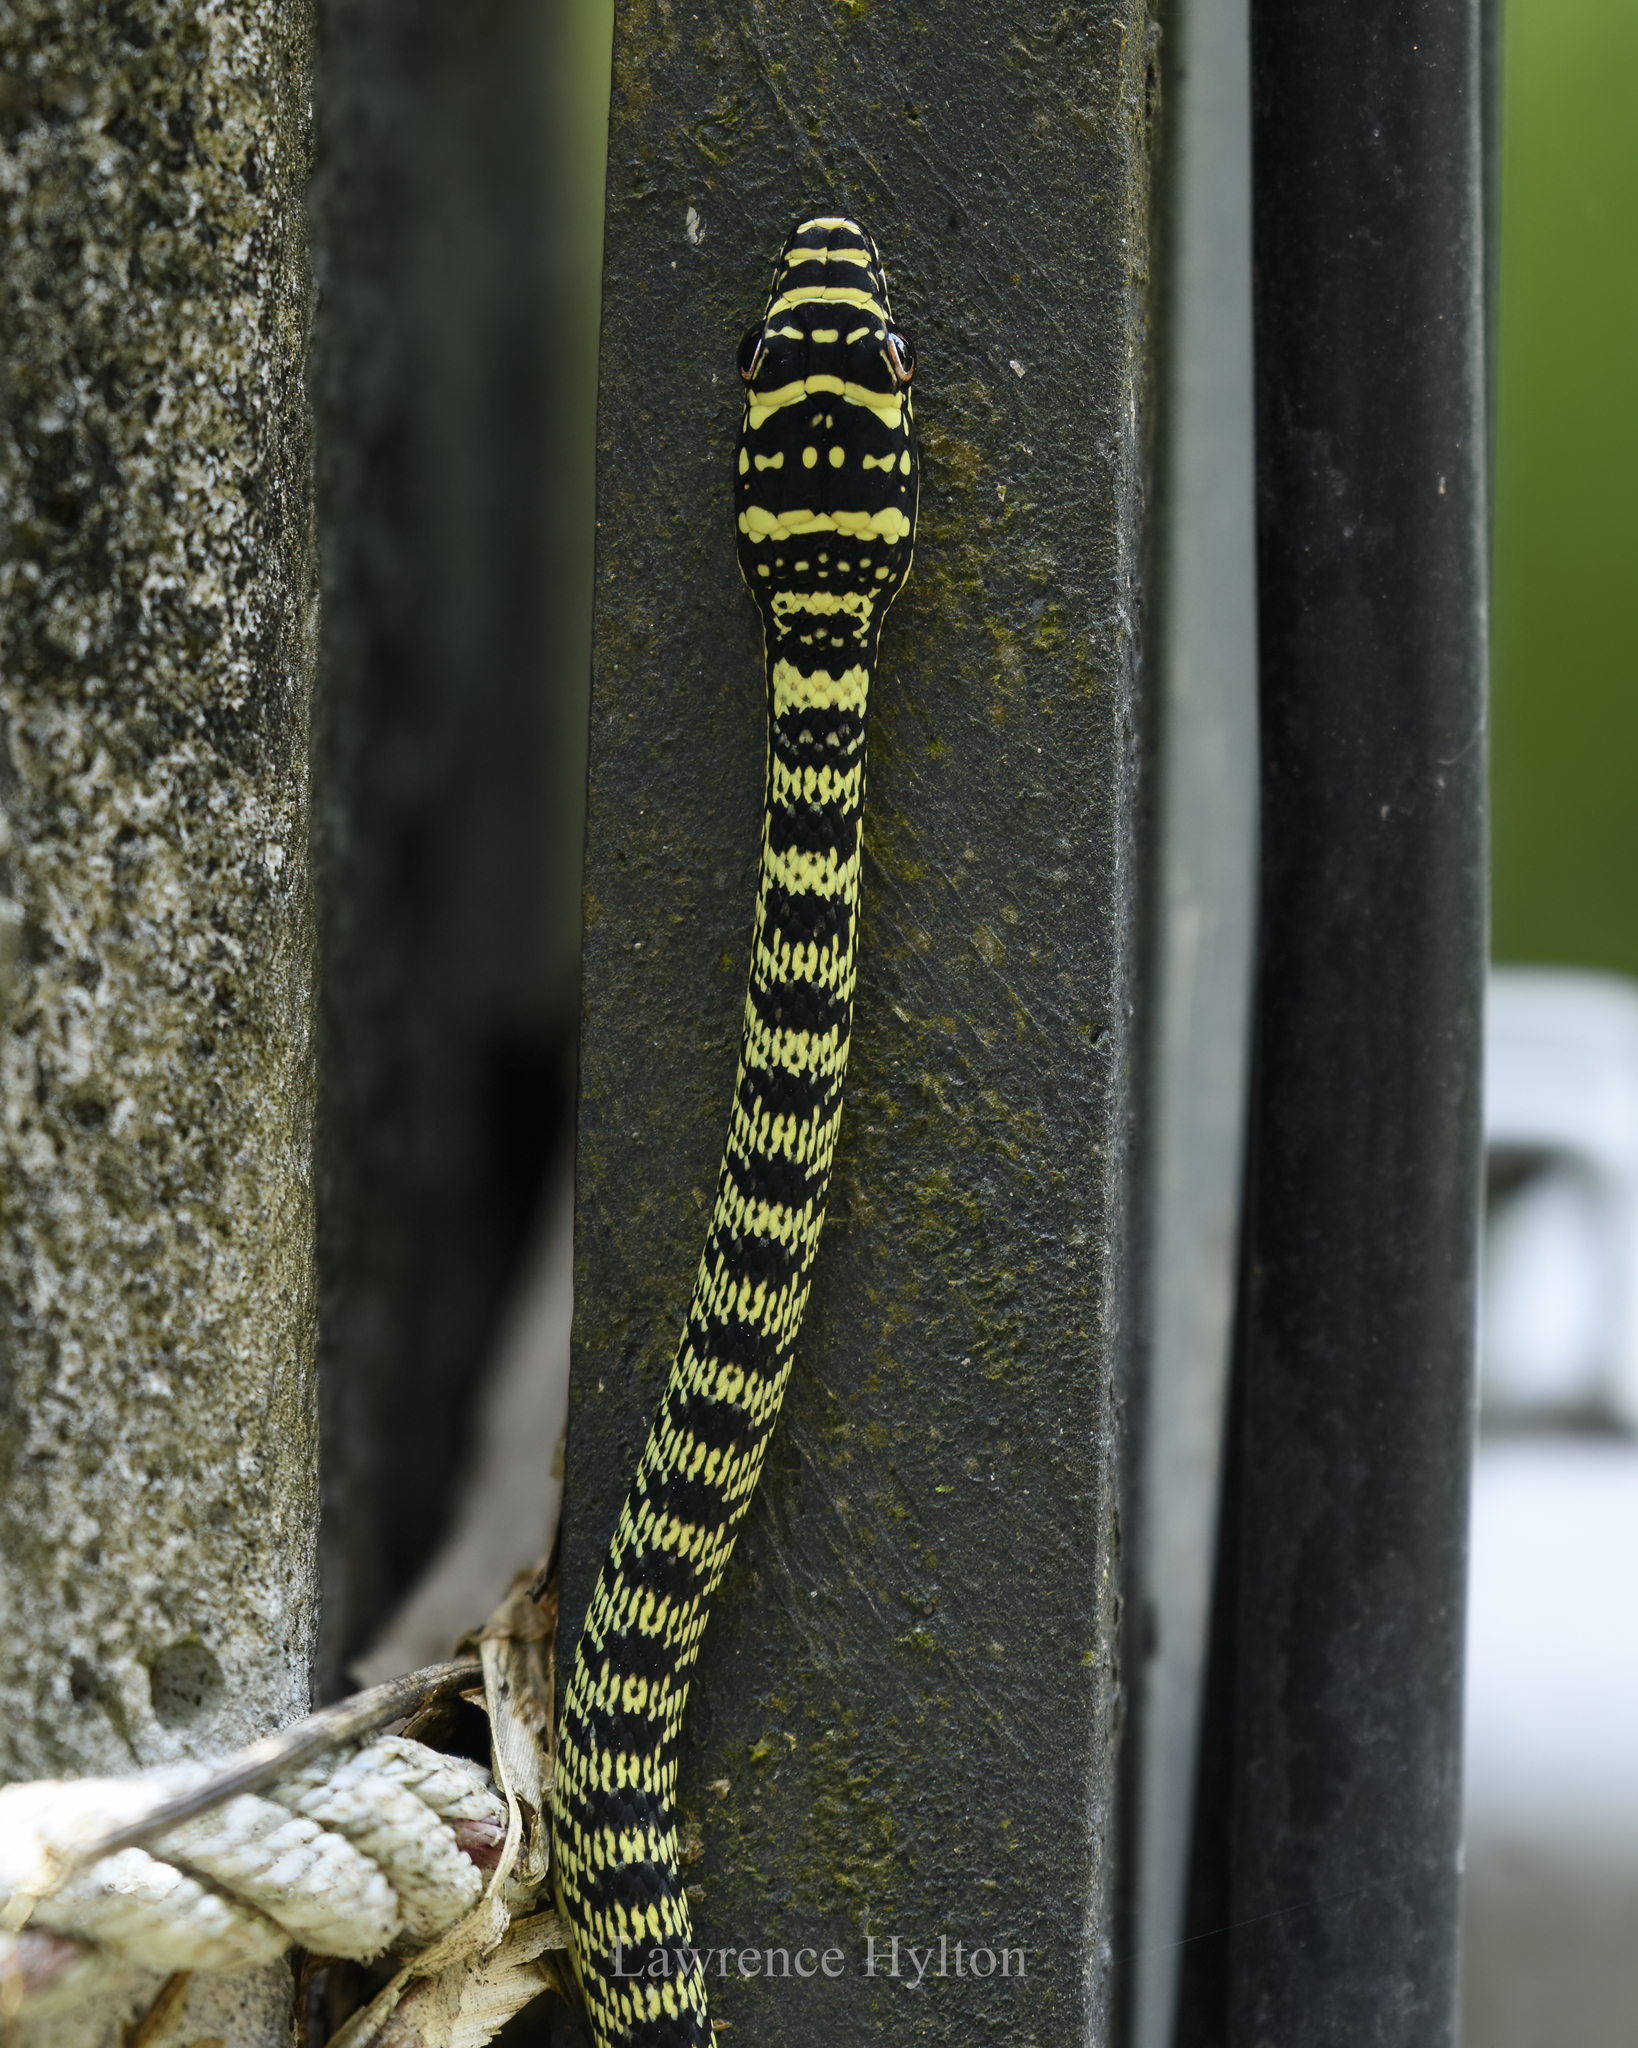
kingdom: Animalia
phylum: Chordata
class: Squamata
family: Colubridae
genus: Chrysopelea
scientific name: Chrysopelea ornata
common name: Golden flying snake
